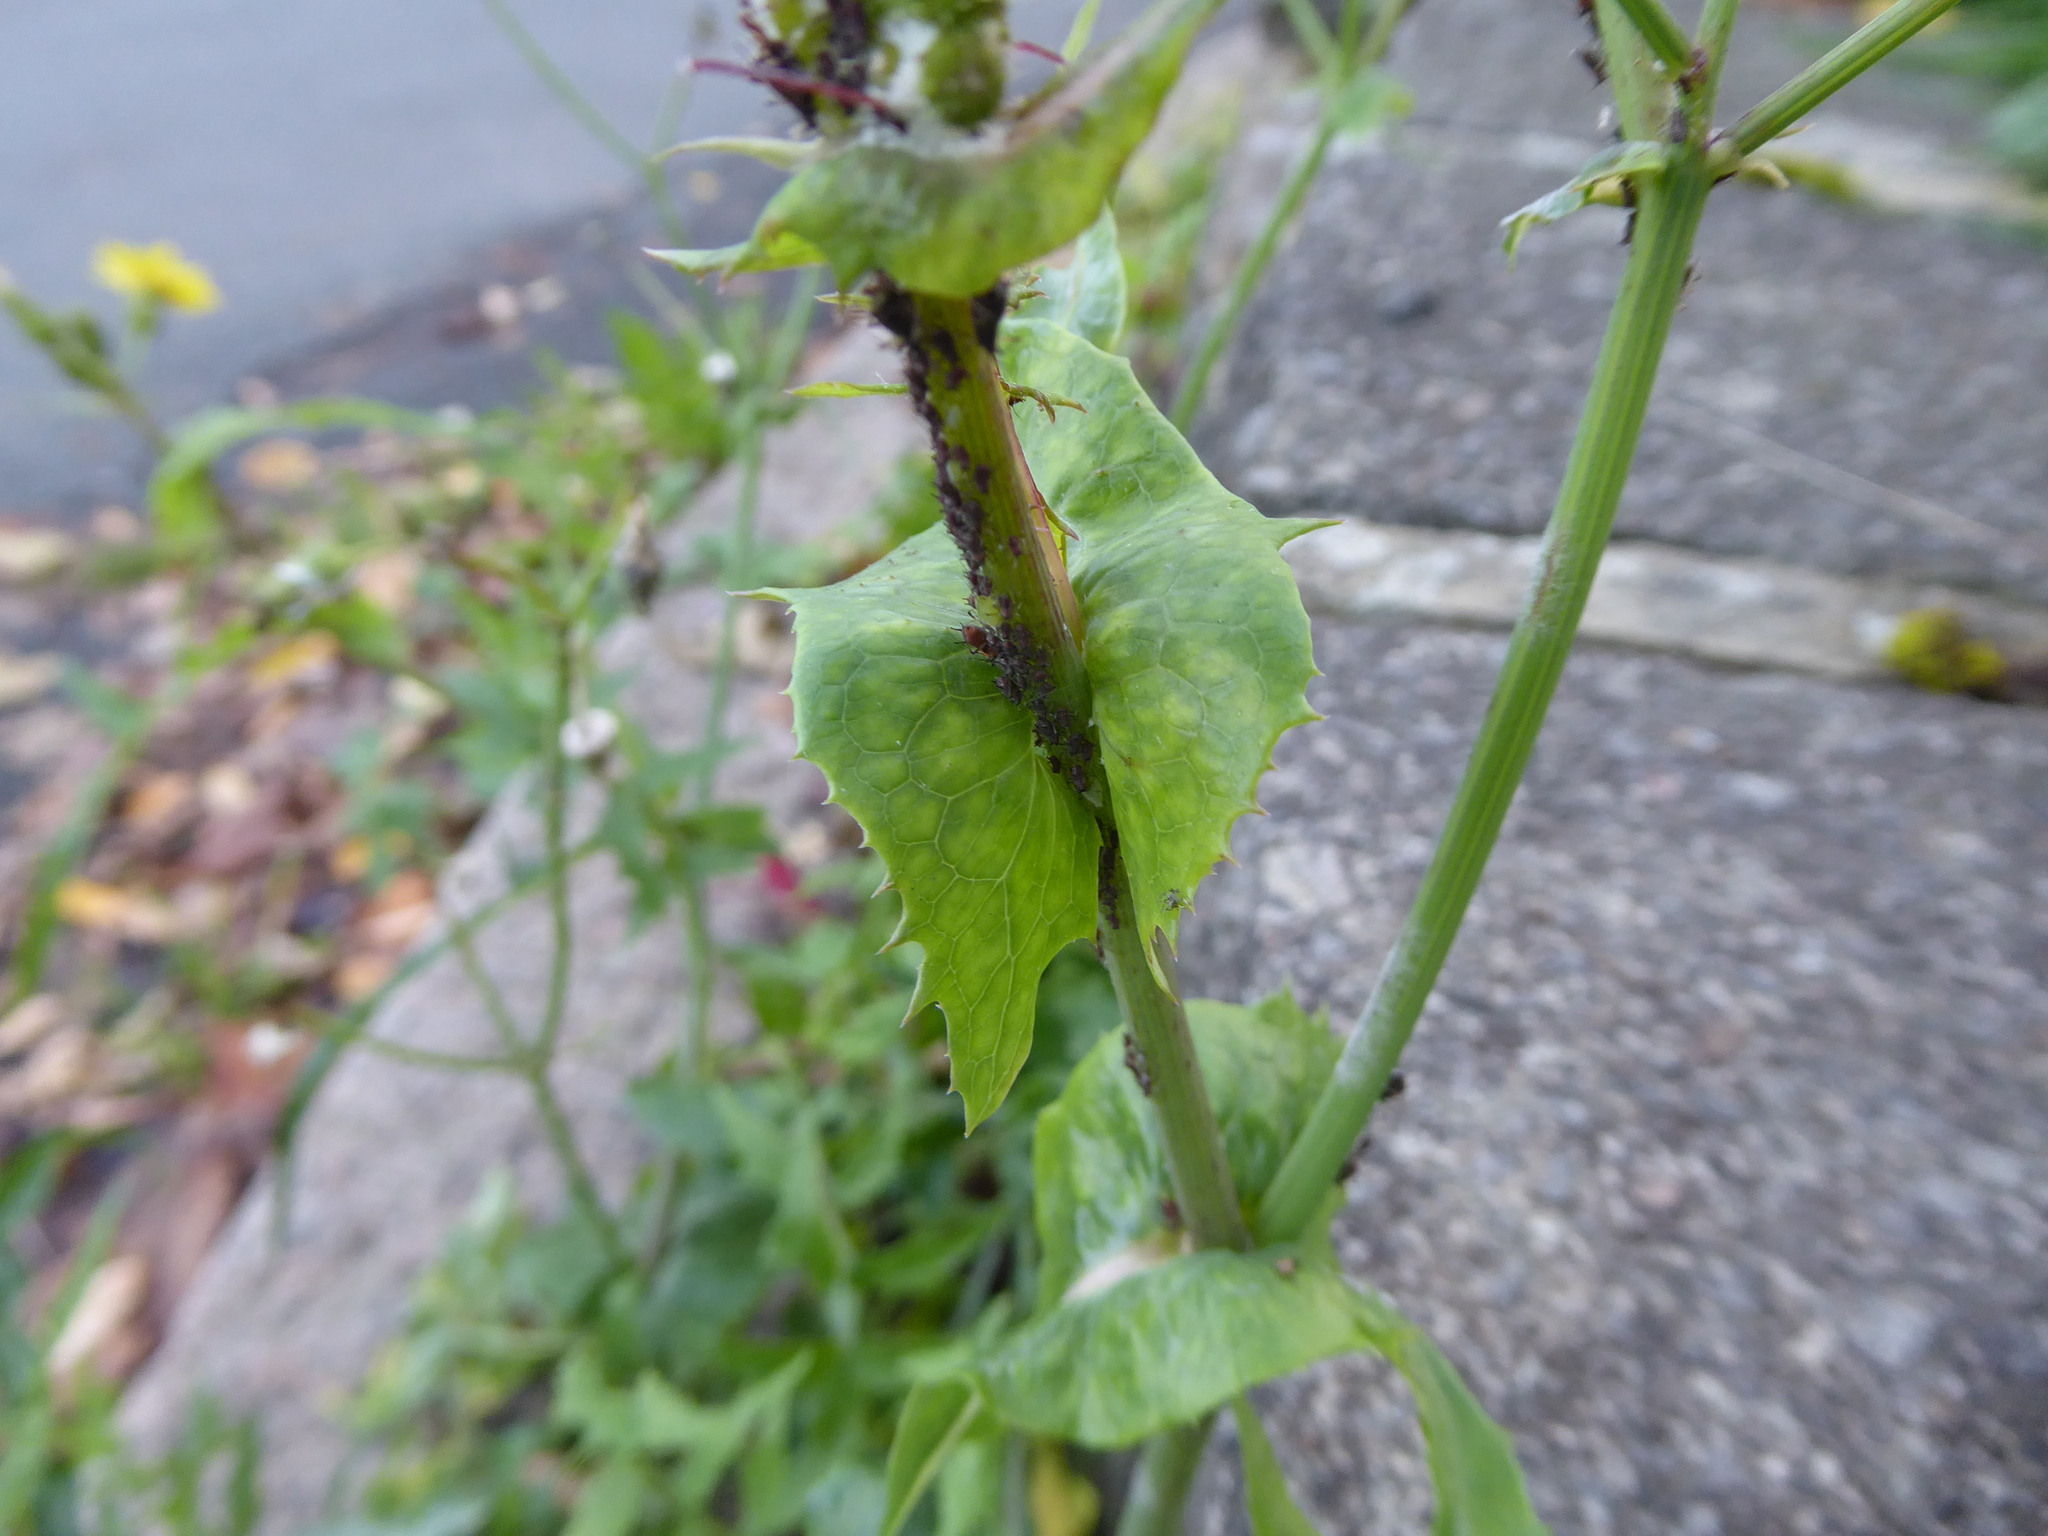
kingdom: Plantae
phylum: Tracheophyta
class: Magnoliopsida
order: Asterales
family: Asteraceae
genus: Sonchus
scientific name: Sonchus oleraceus
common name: Common sowthistle
